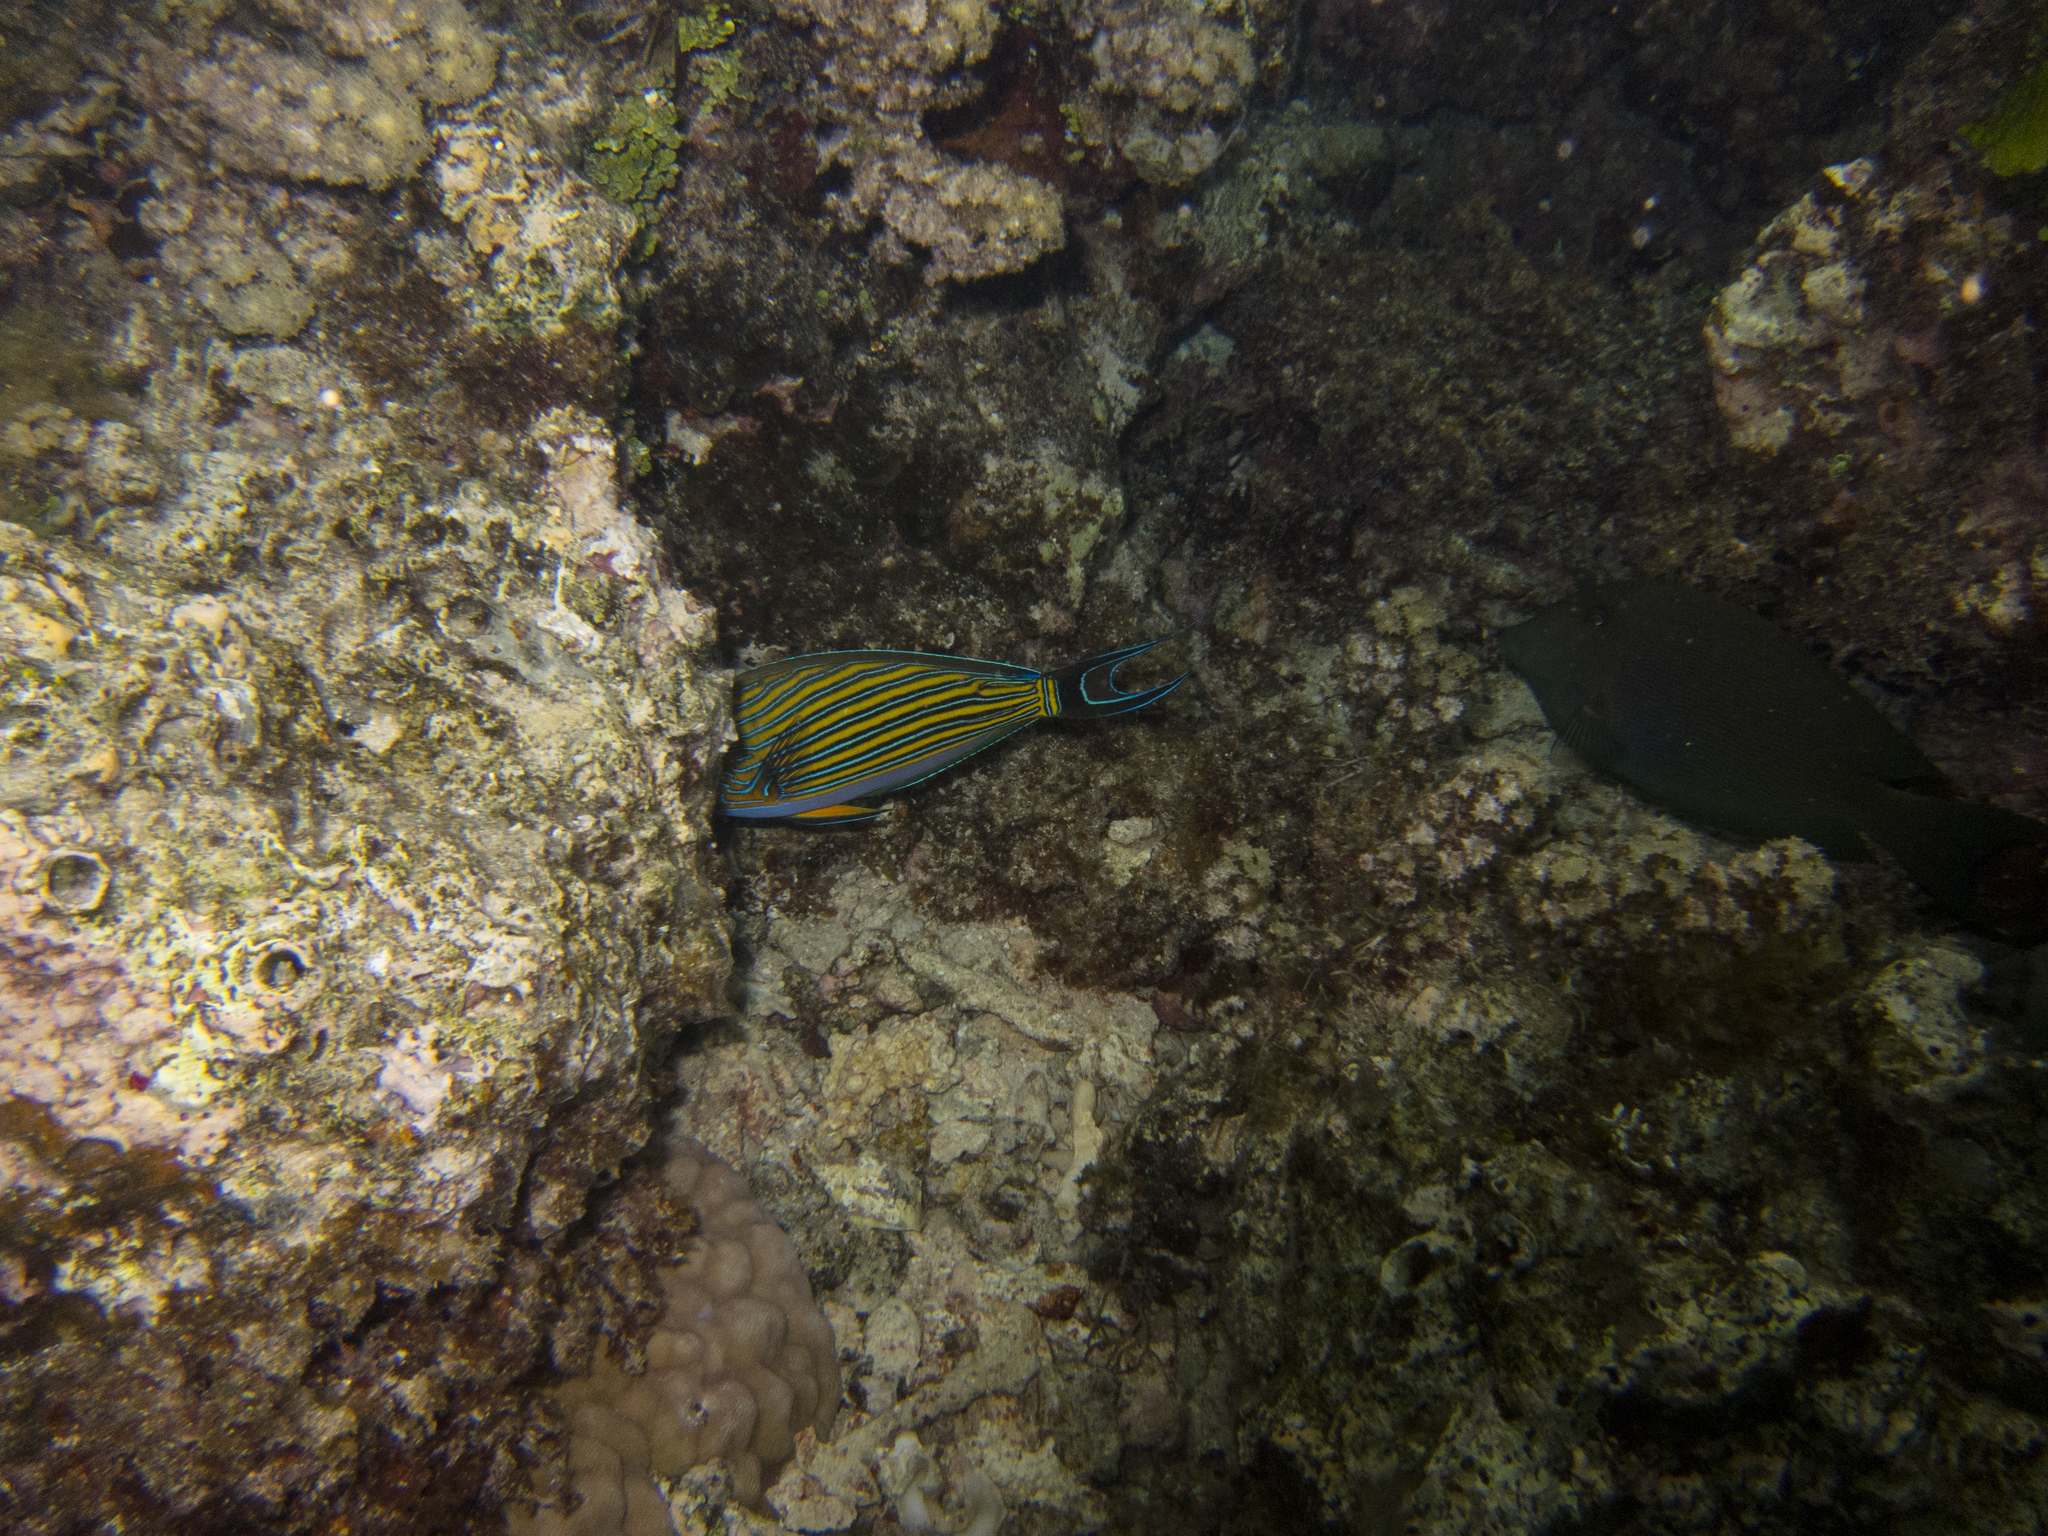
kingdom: Animalia
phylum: Chordata
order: Perciformes
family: Acanthuridae
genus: Acanthurus
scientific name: Acanthurus lineatus
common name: Striped surgeonfish
